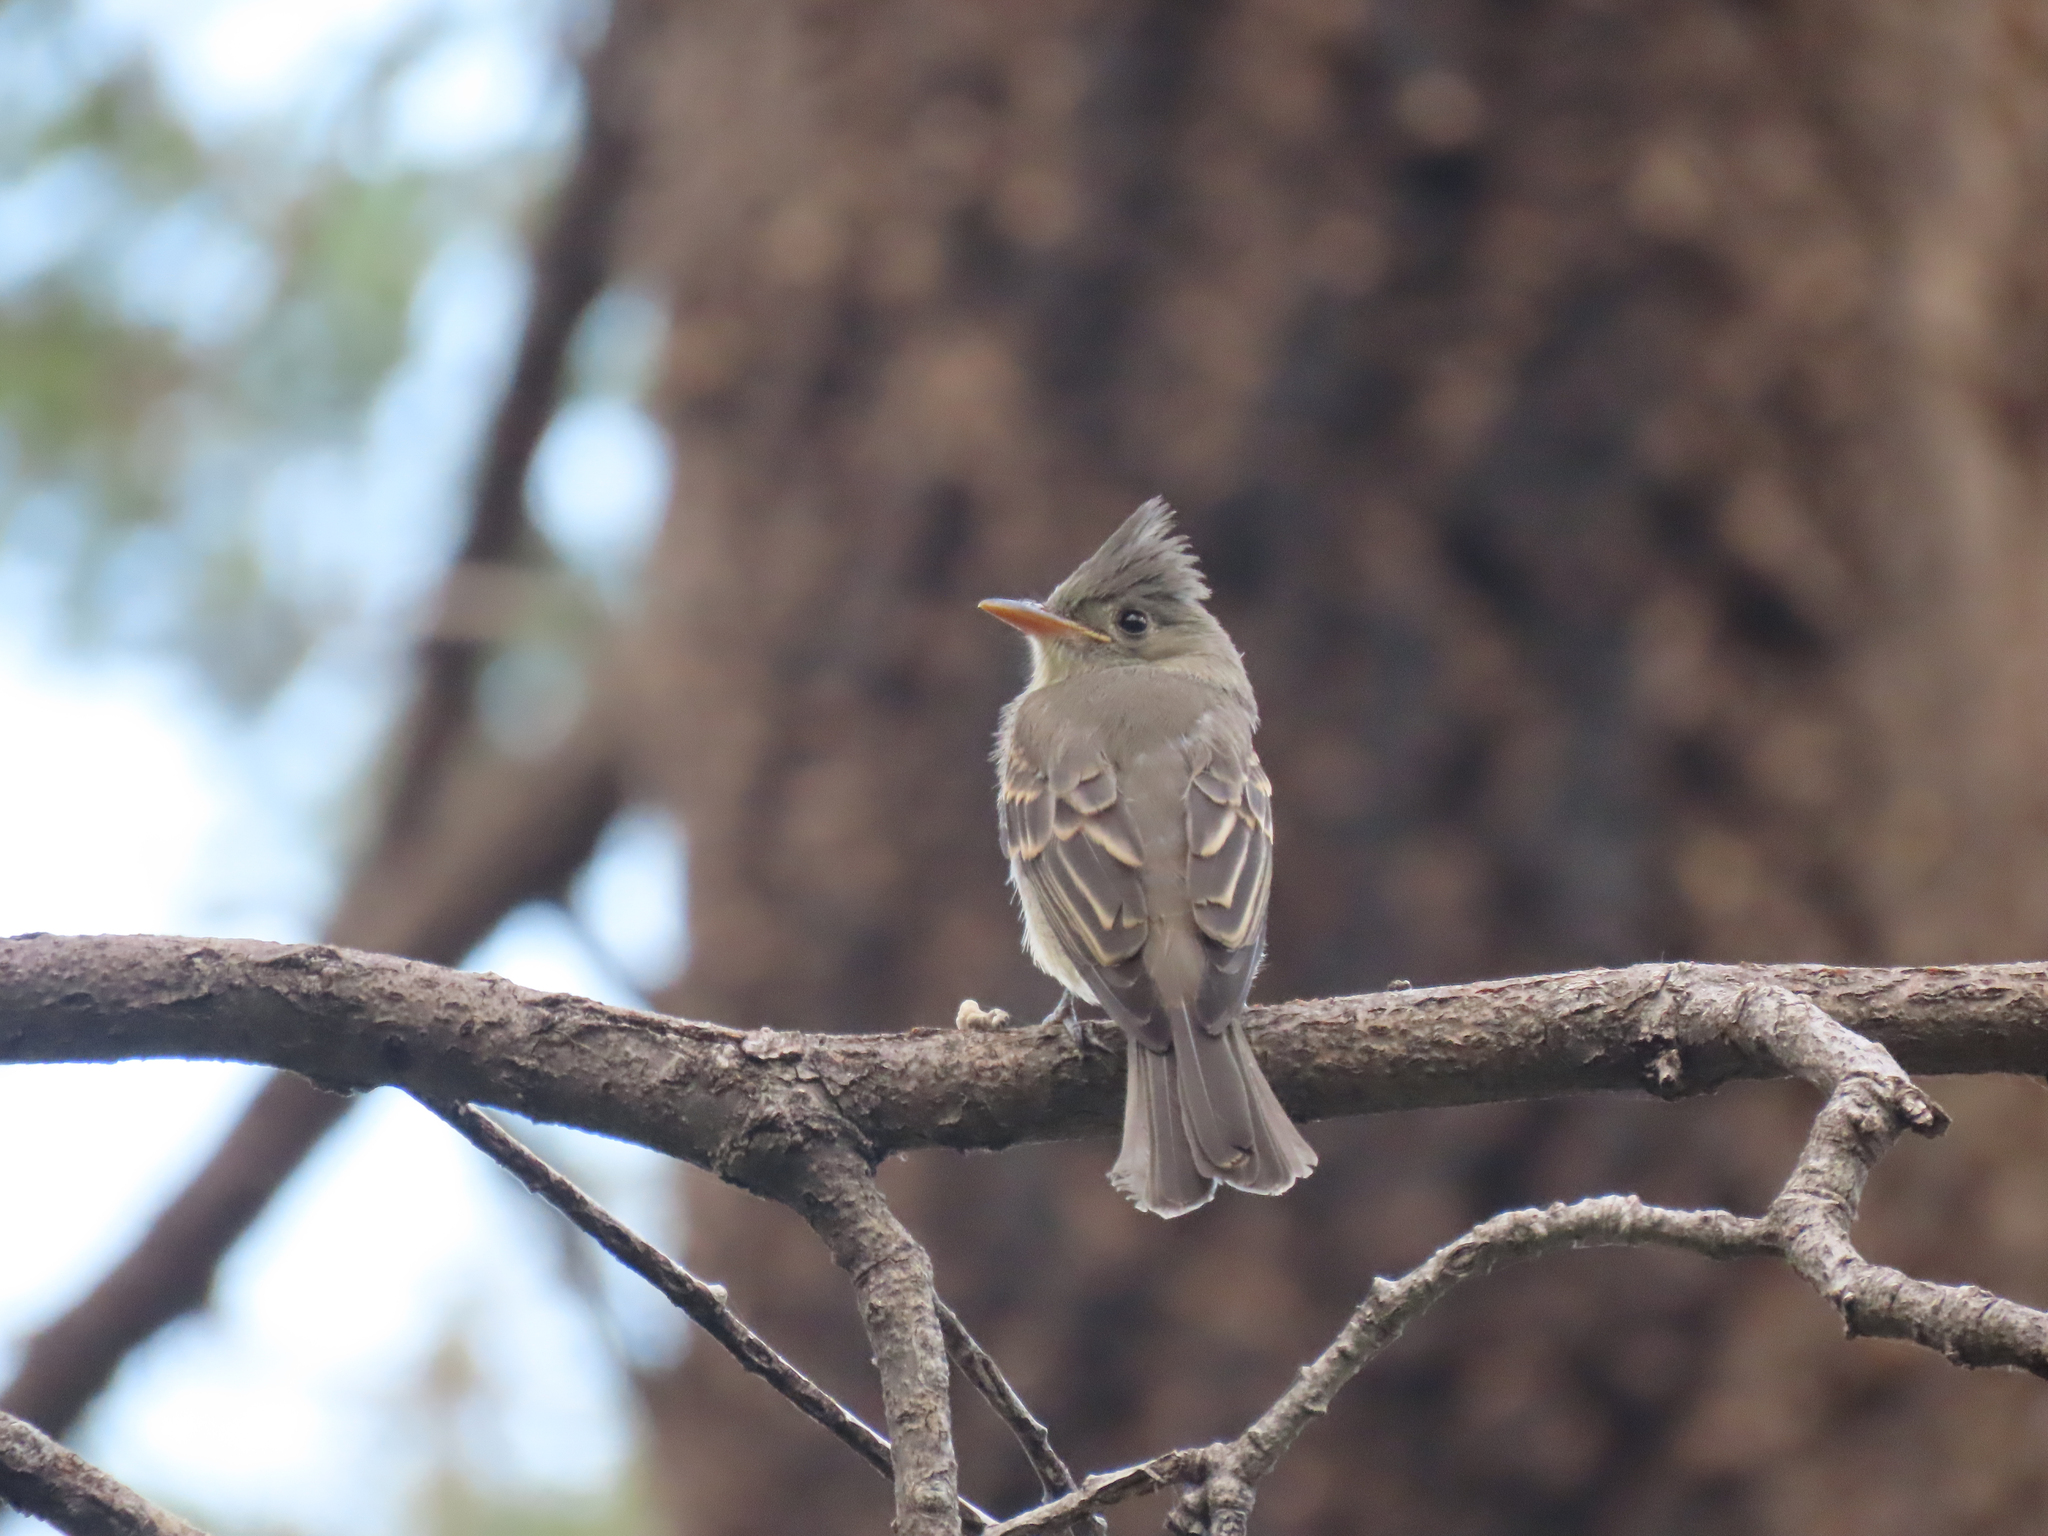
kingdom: Animalia
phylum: Chordata
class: Aves
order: Passeriformes
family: Tyrannidae
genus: Contopus
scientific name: Contopus pertinax
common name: Greater pewee
